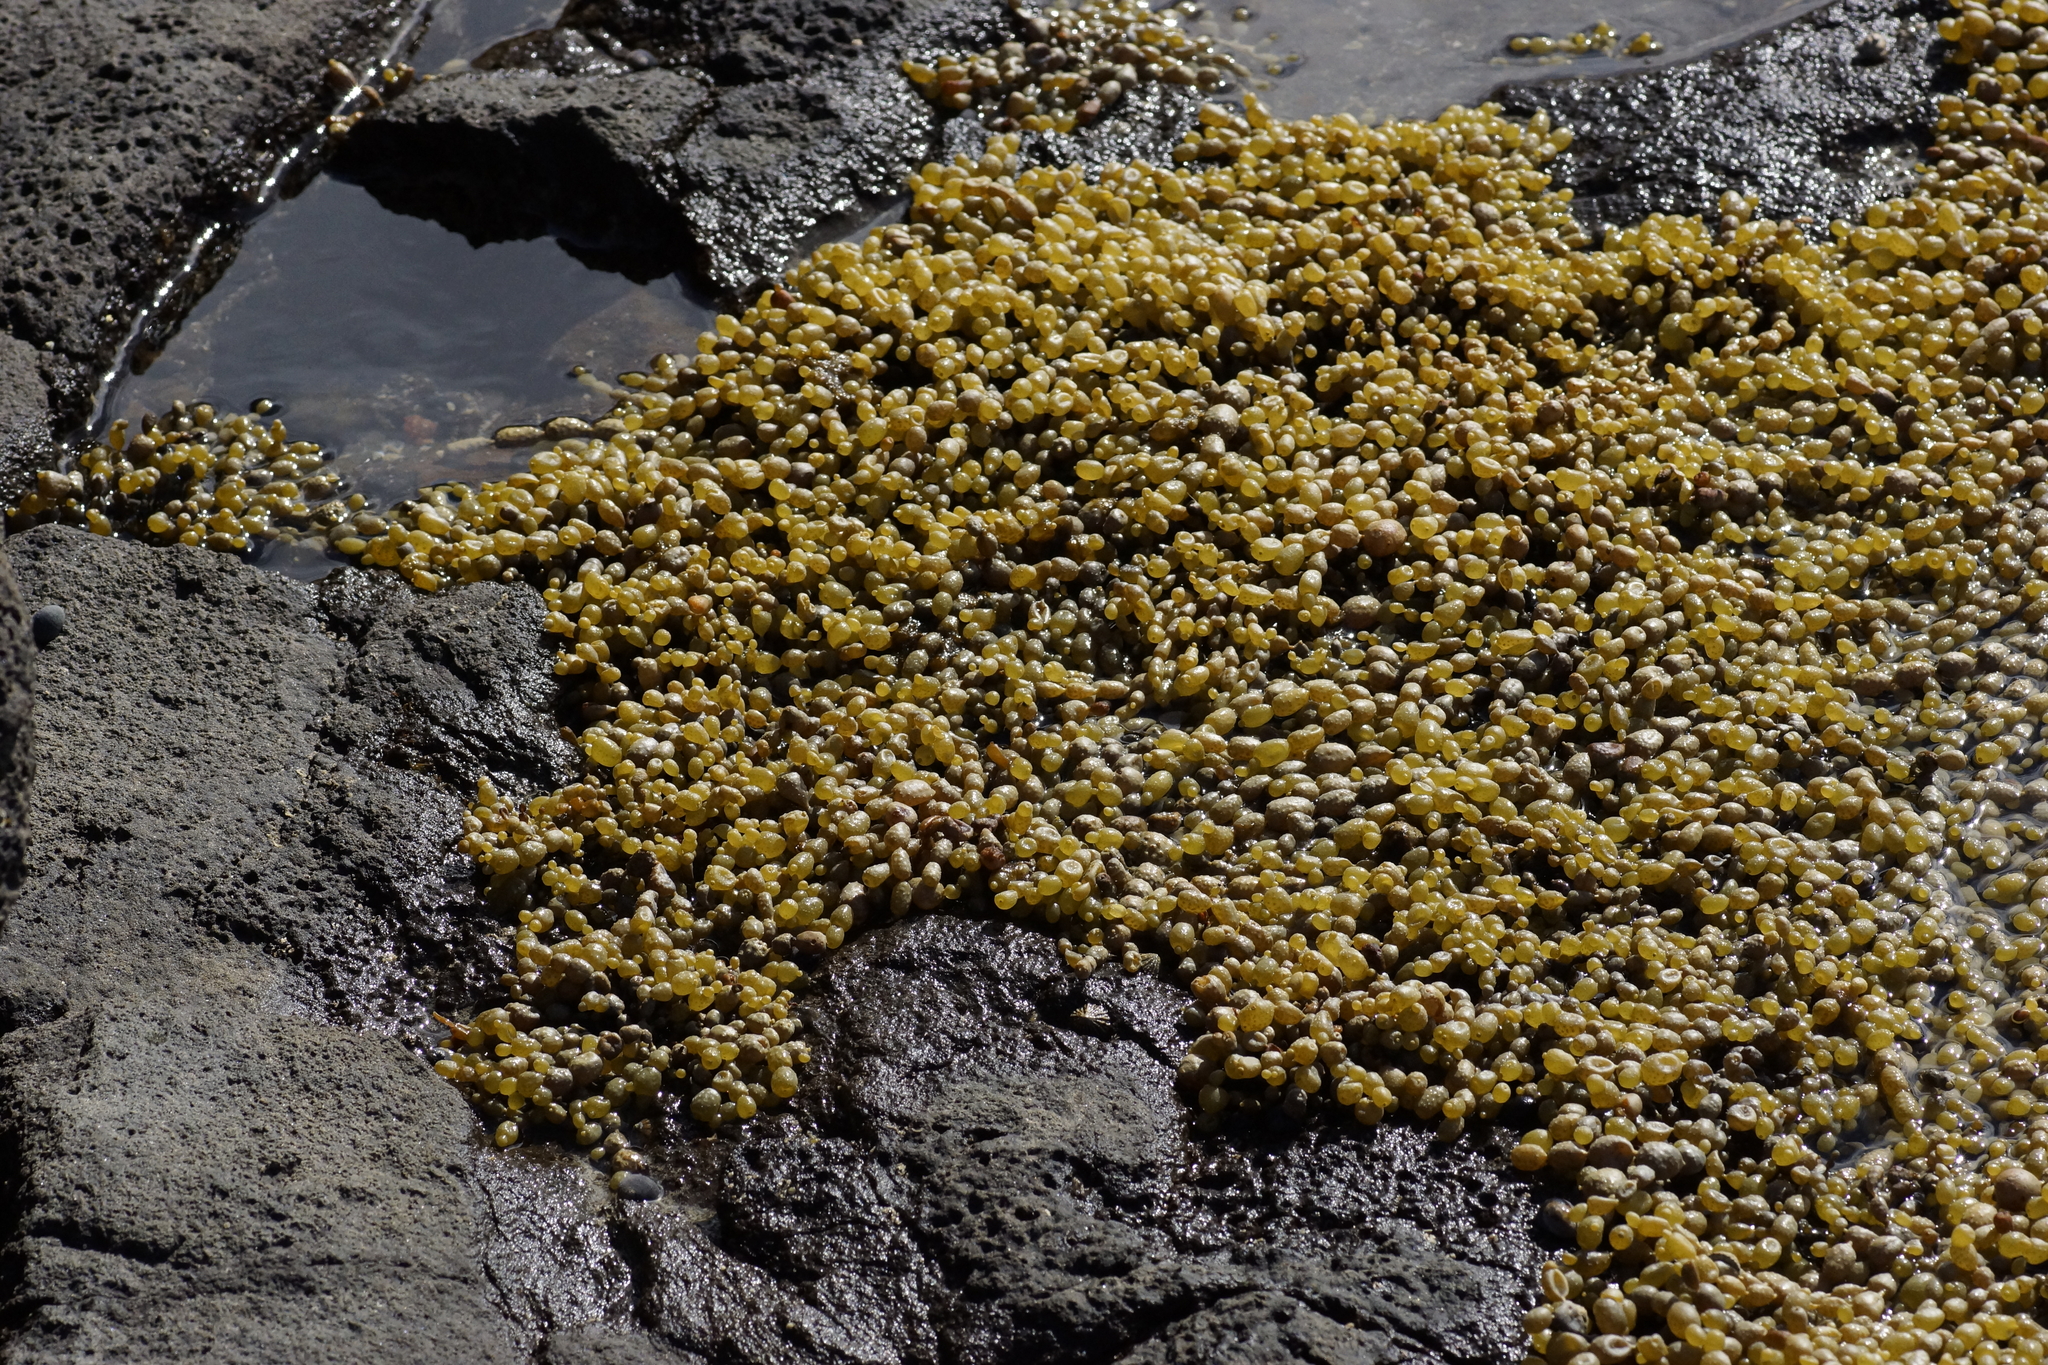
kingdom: Chromista
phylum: Ochrophyta
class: Phaeophyceae
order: Fucales
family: Hormosiraceae
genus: Hormosira
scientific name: Hormosira banksii
